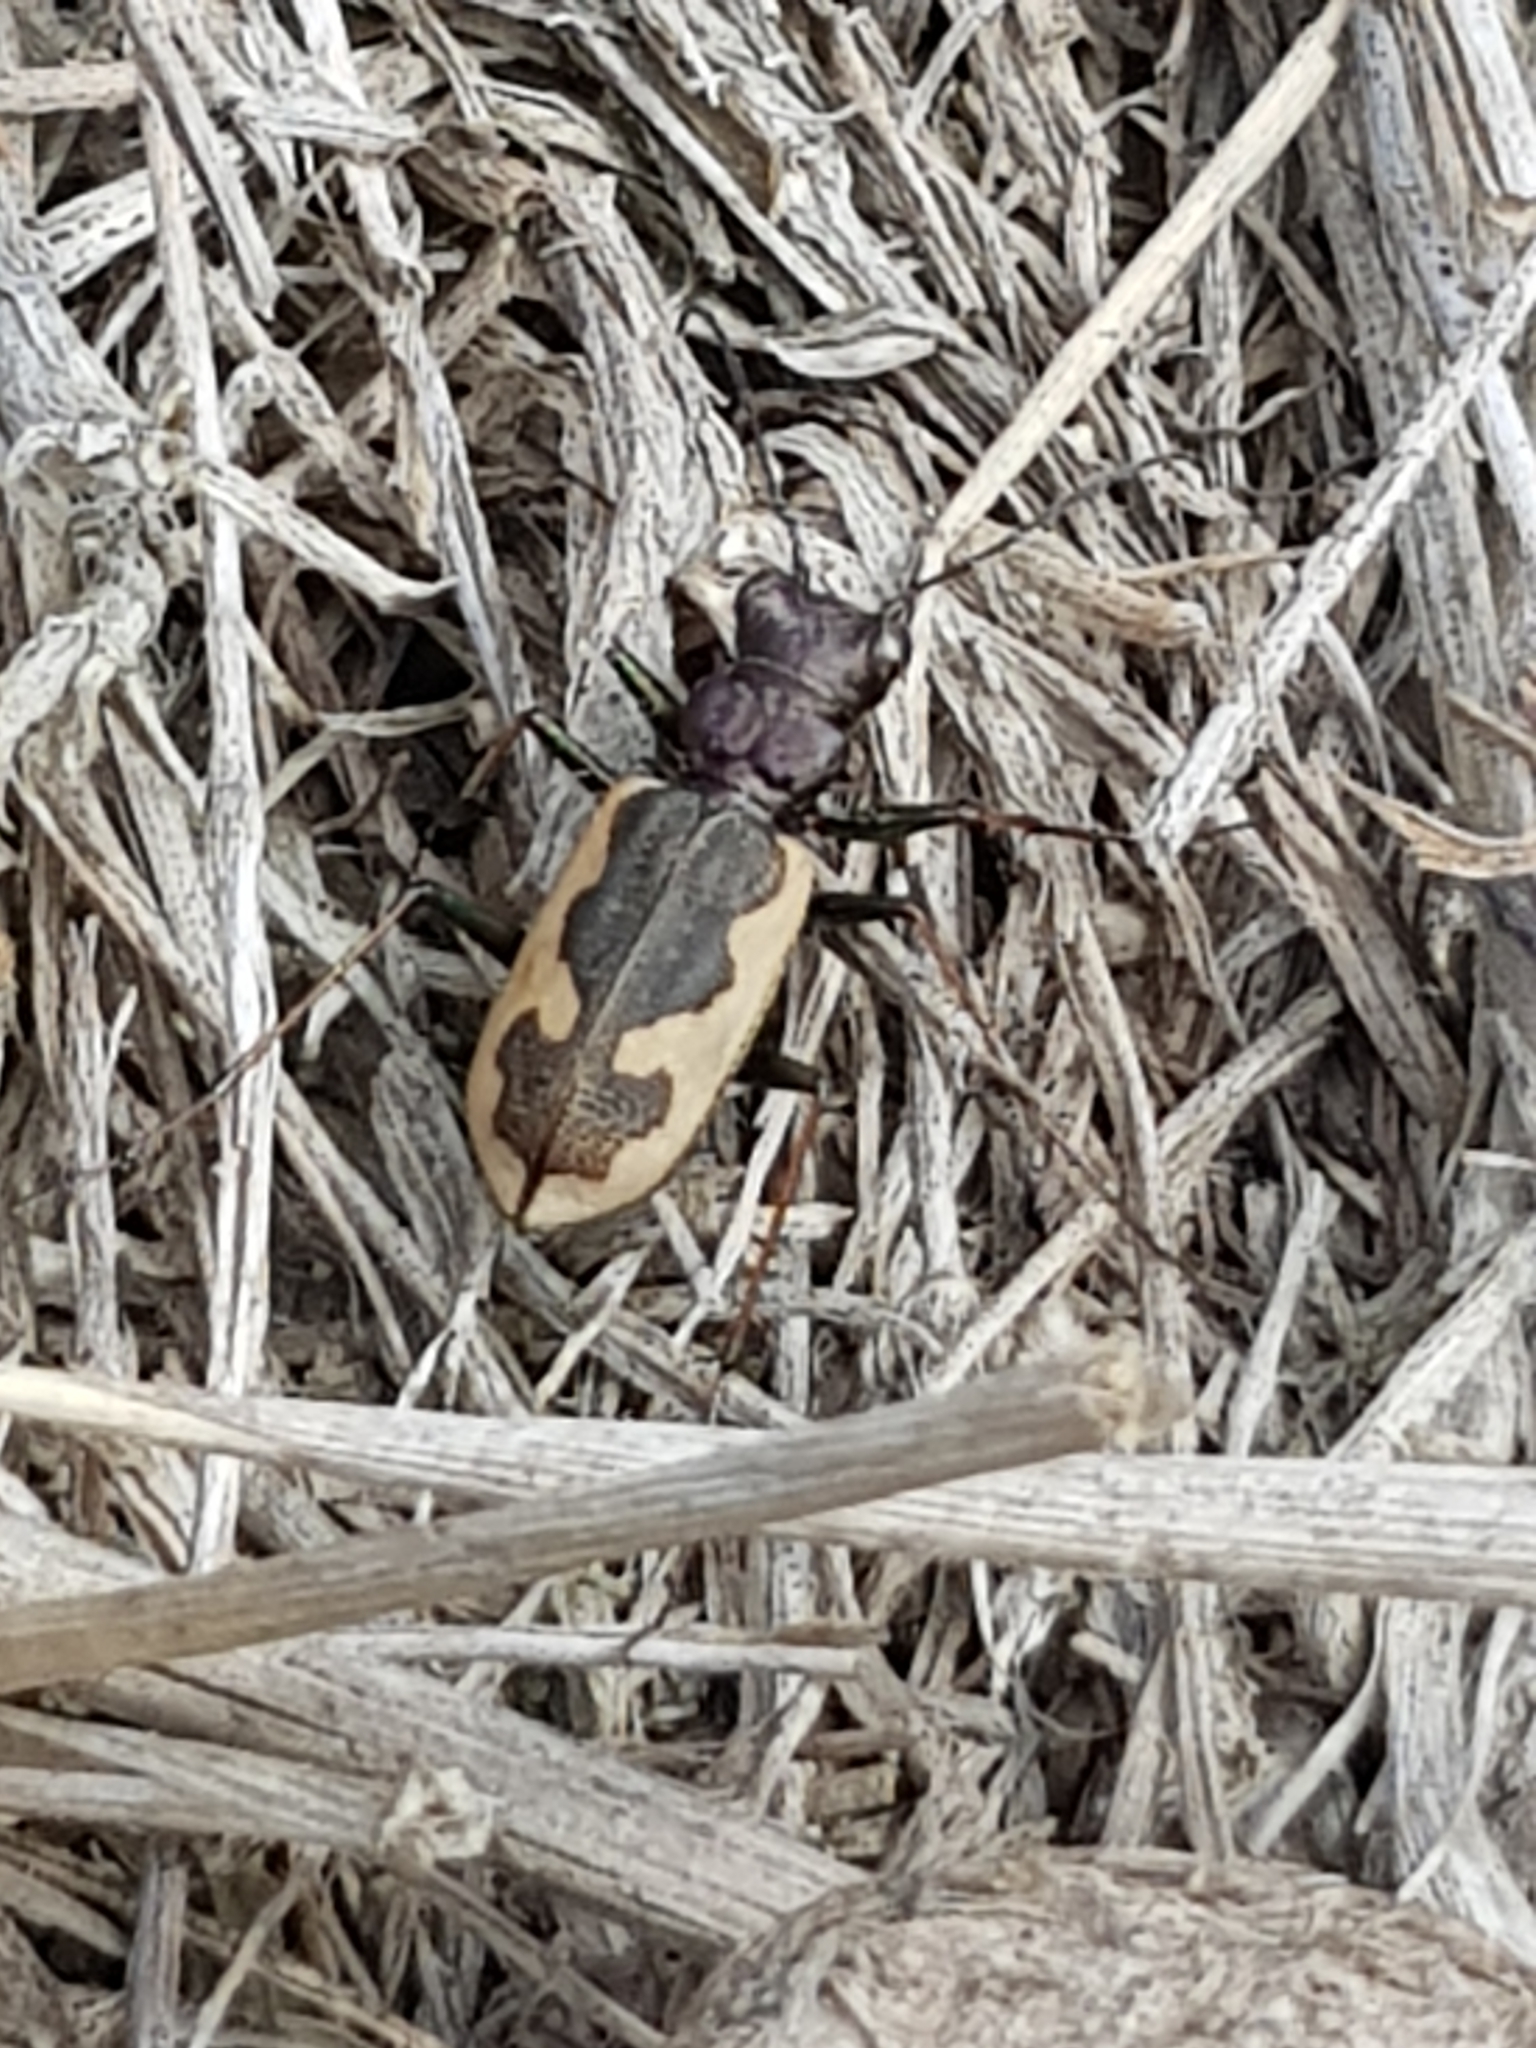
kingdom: Animalia
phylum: Arthropoda
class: Insecta
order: Coleoptera
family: Carabidae
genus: Neocicindela
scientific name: Neocicindela latecincta
